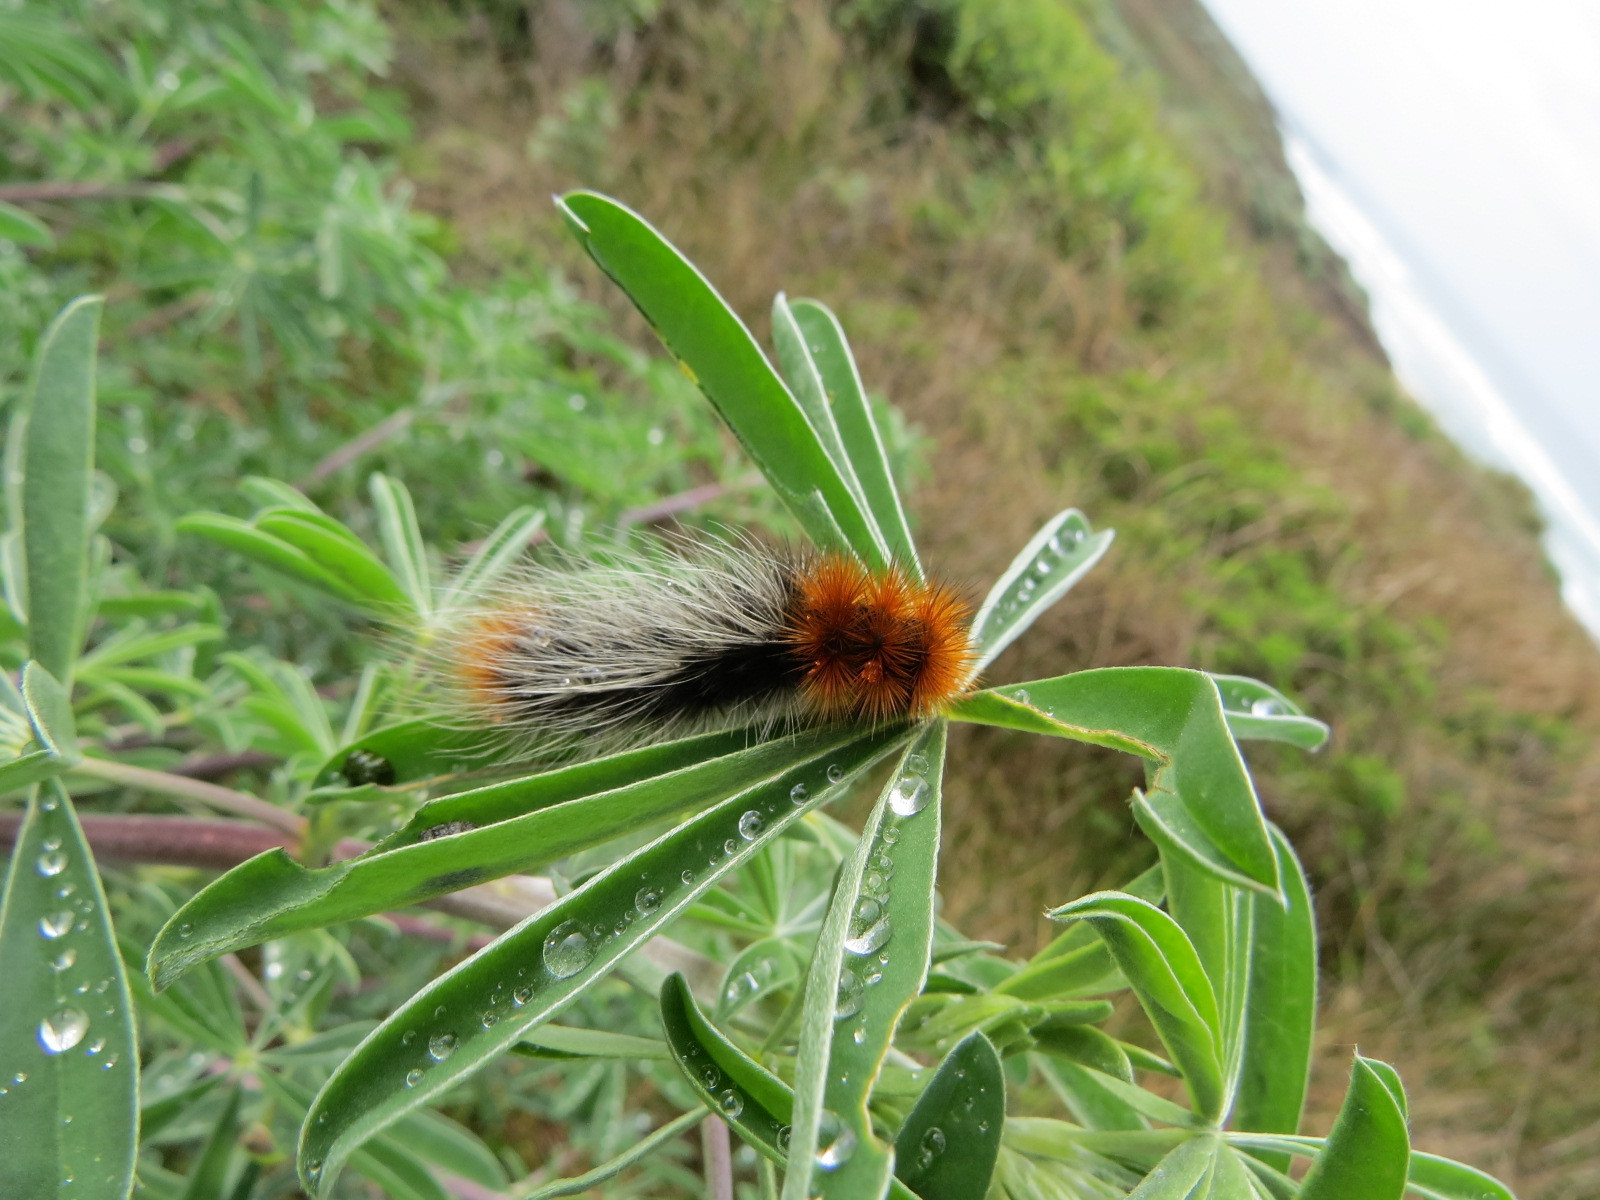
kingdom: Animalia
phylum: Arthropoda
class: Insecta
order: Lepidoptera
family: Erebidae
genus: Arctia
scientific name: Arctia tigrina
